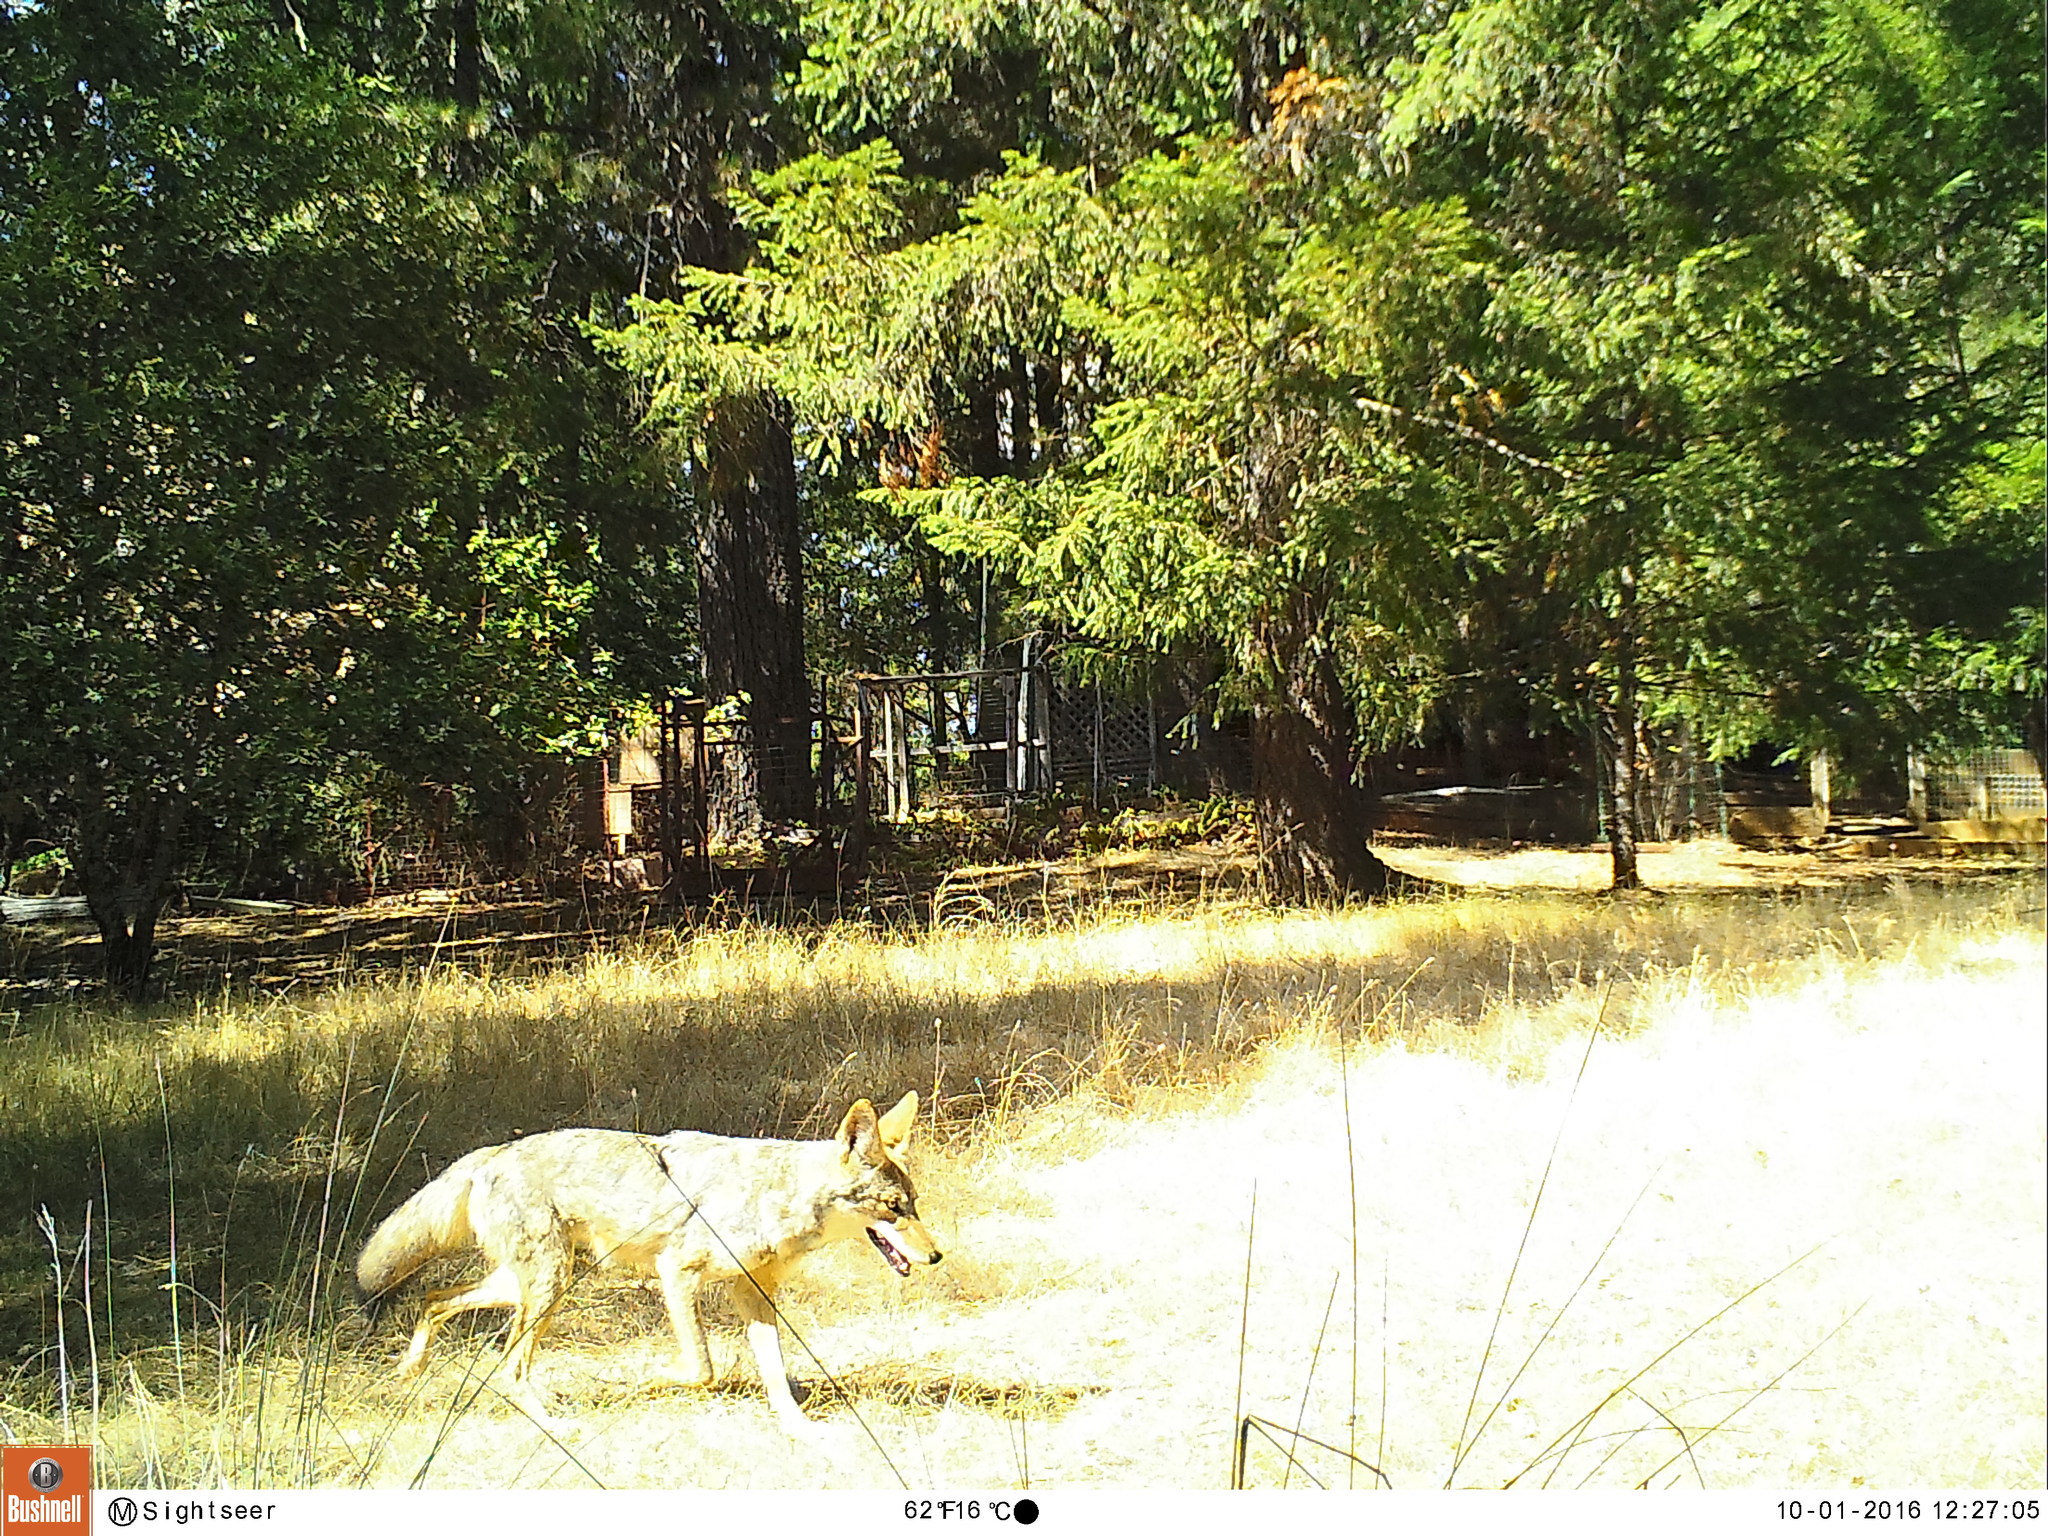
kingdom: Animalia
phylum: Chordata
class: Mammalia
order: Carnivora
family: Canidae
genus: Canis
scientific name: Canis latrans
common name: Coyote
